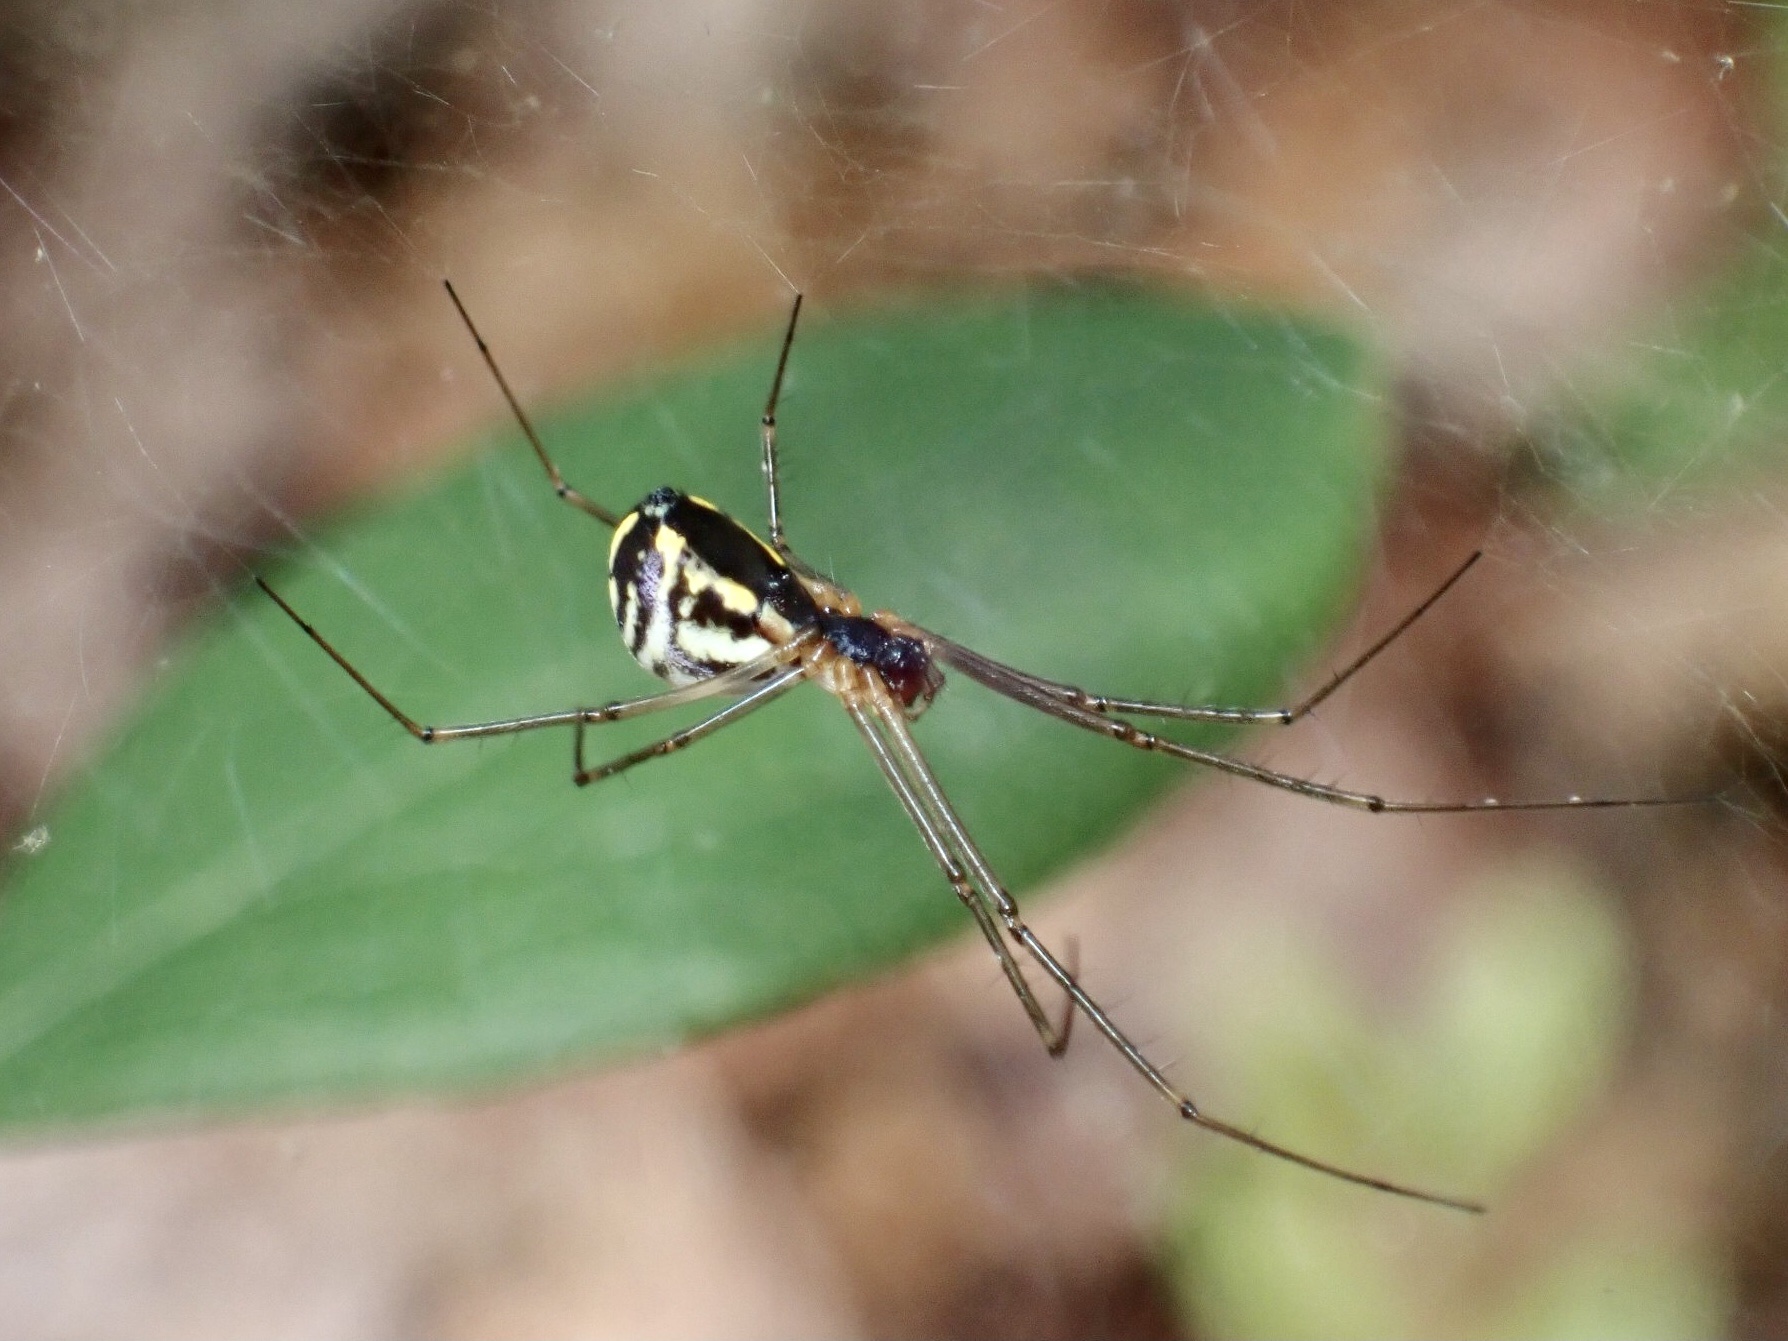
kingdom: Animalia
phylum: Arthropoda
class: Arachnida
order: Araneae
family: Linyphiidae
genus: Neriene
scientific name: Neriene radiata
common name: Filmy dome spider
